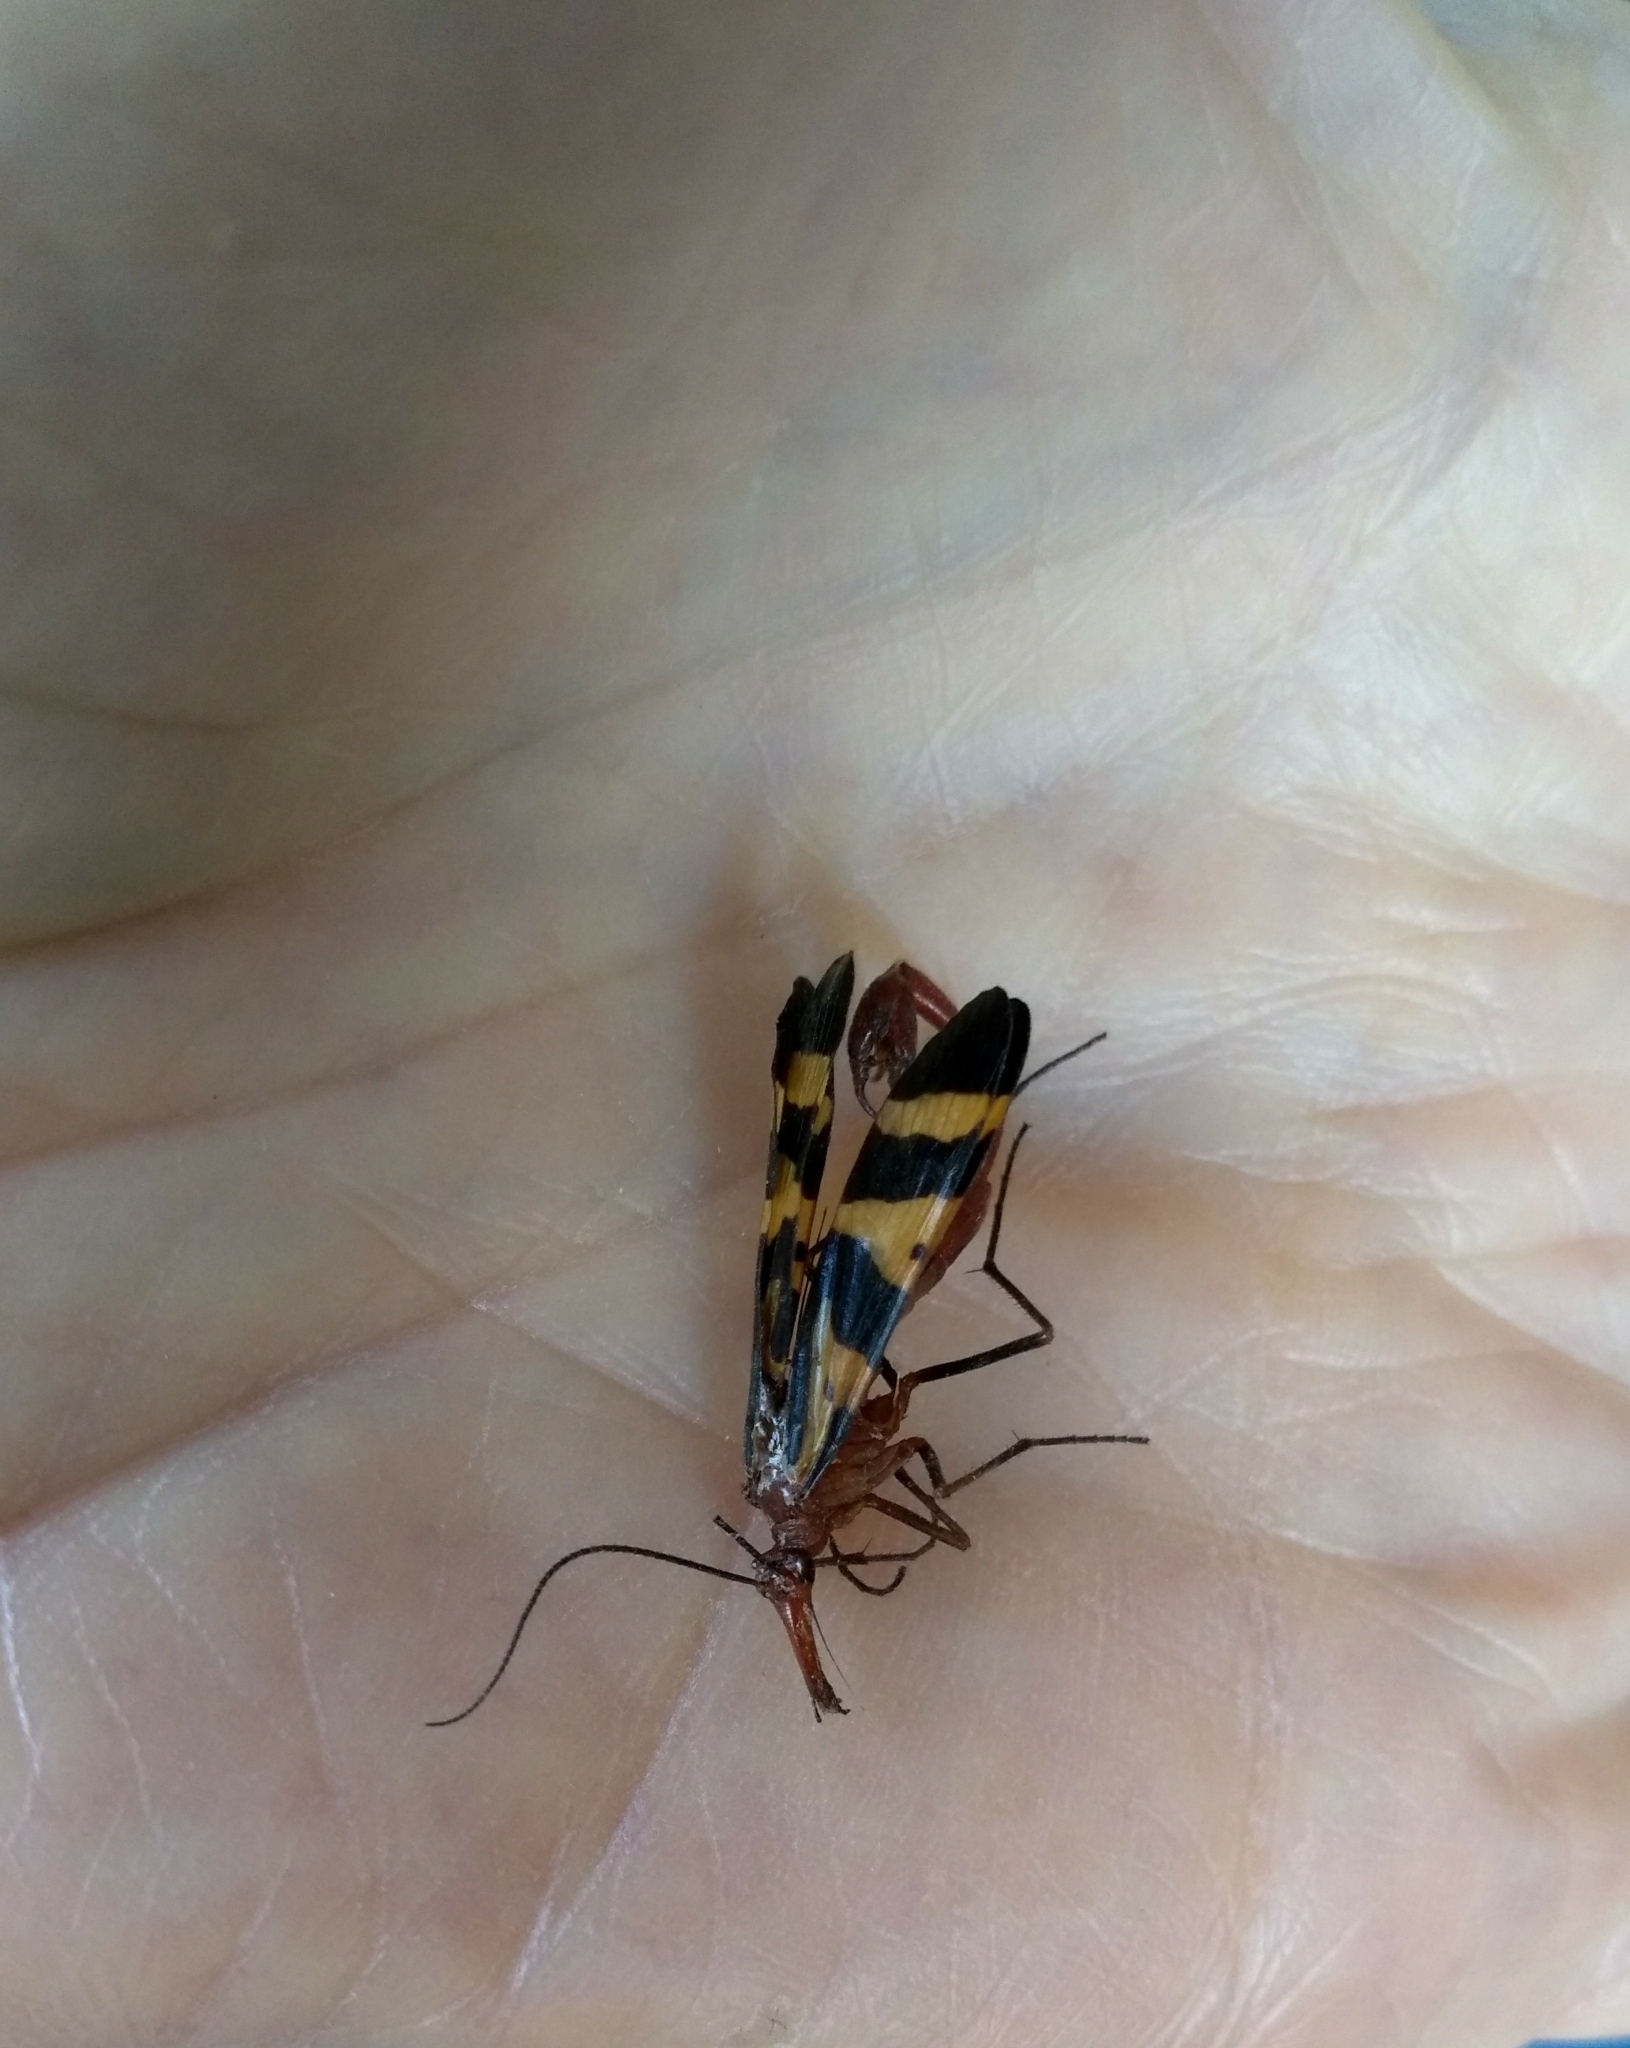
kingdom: Animalia
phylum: Arthropoda
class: Insecta
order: Mecoptera
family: Panorpidae
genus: Panorpa
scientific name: Panorpa nuptialis
